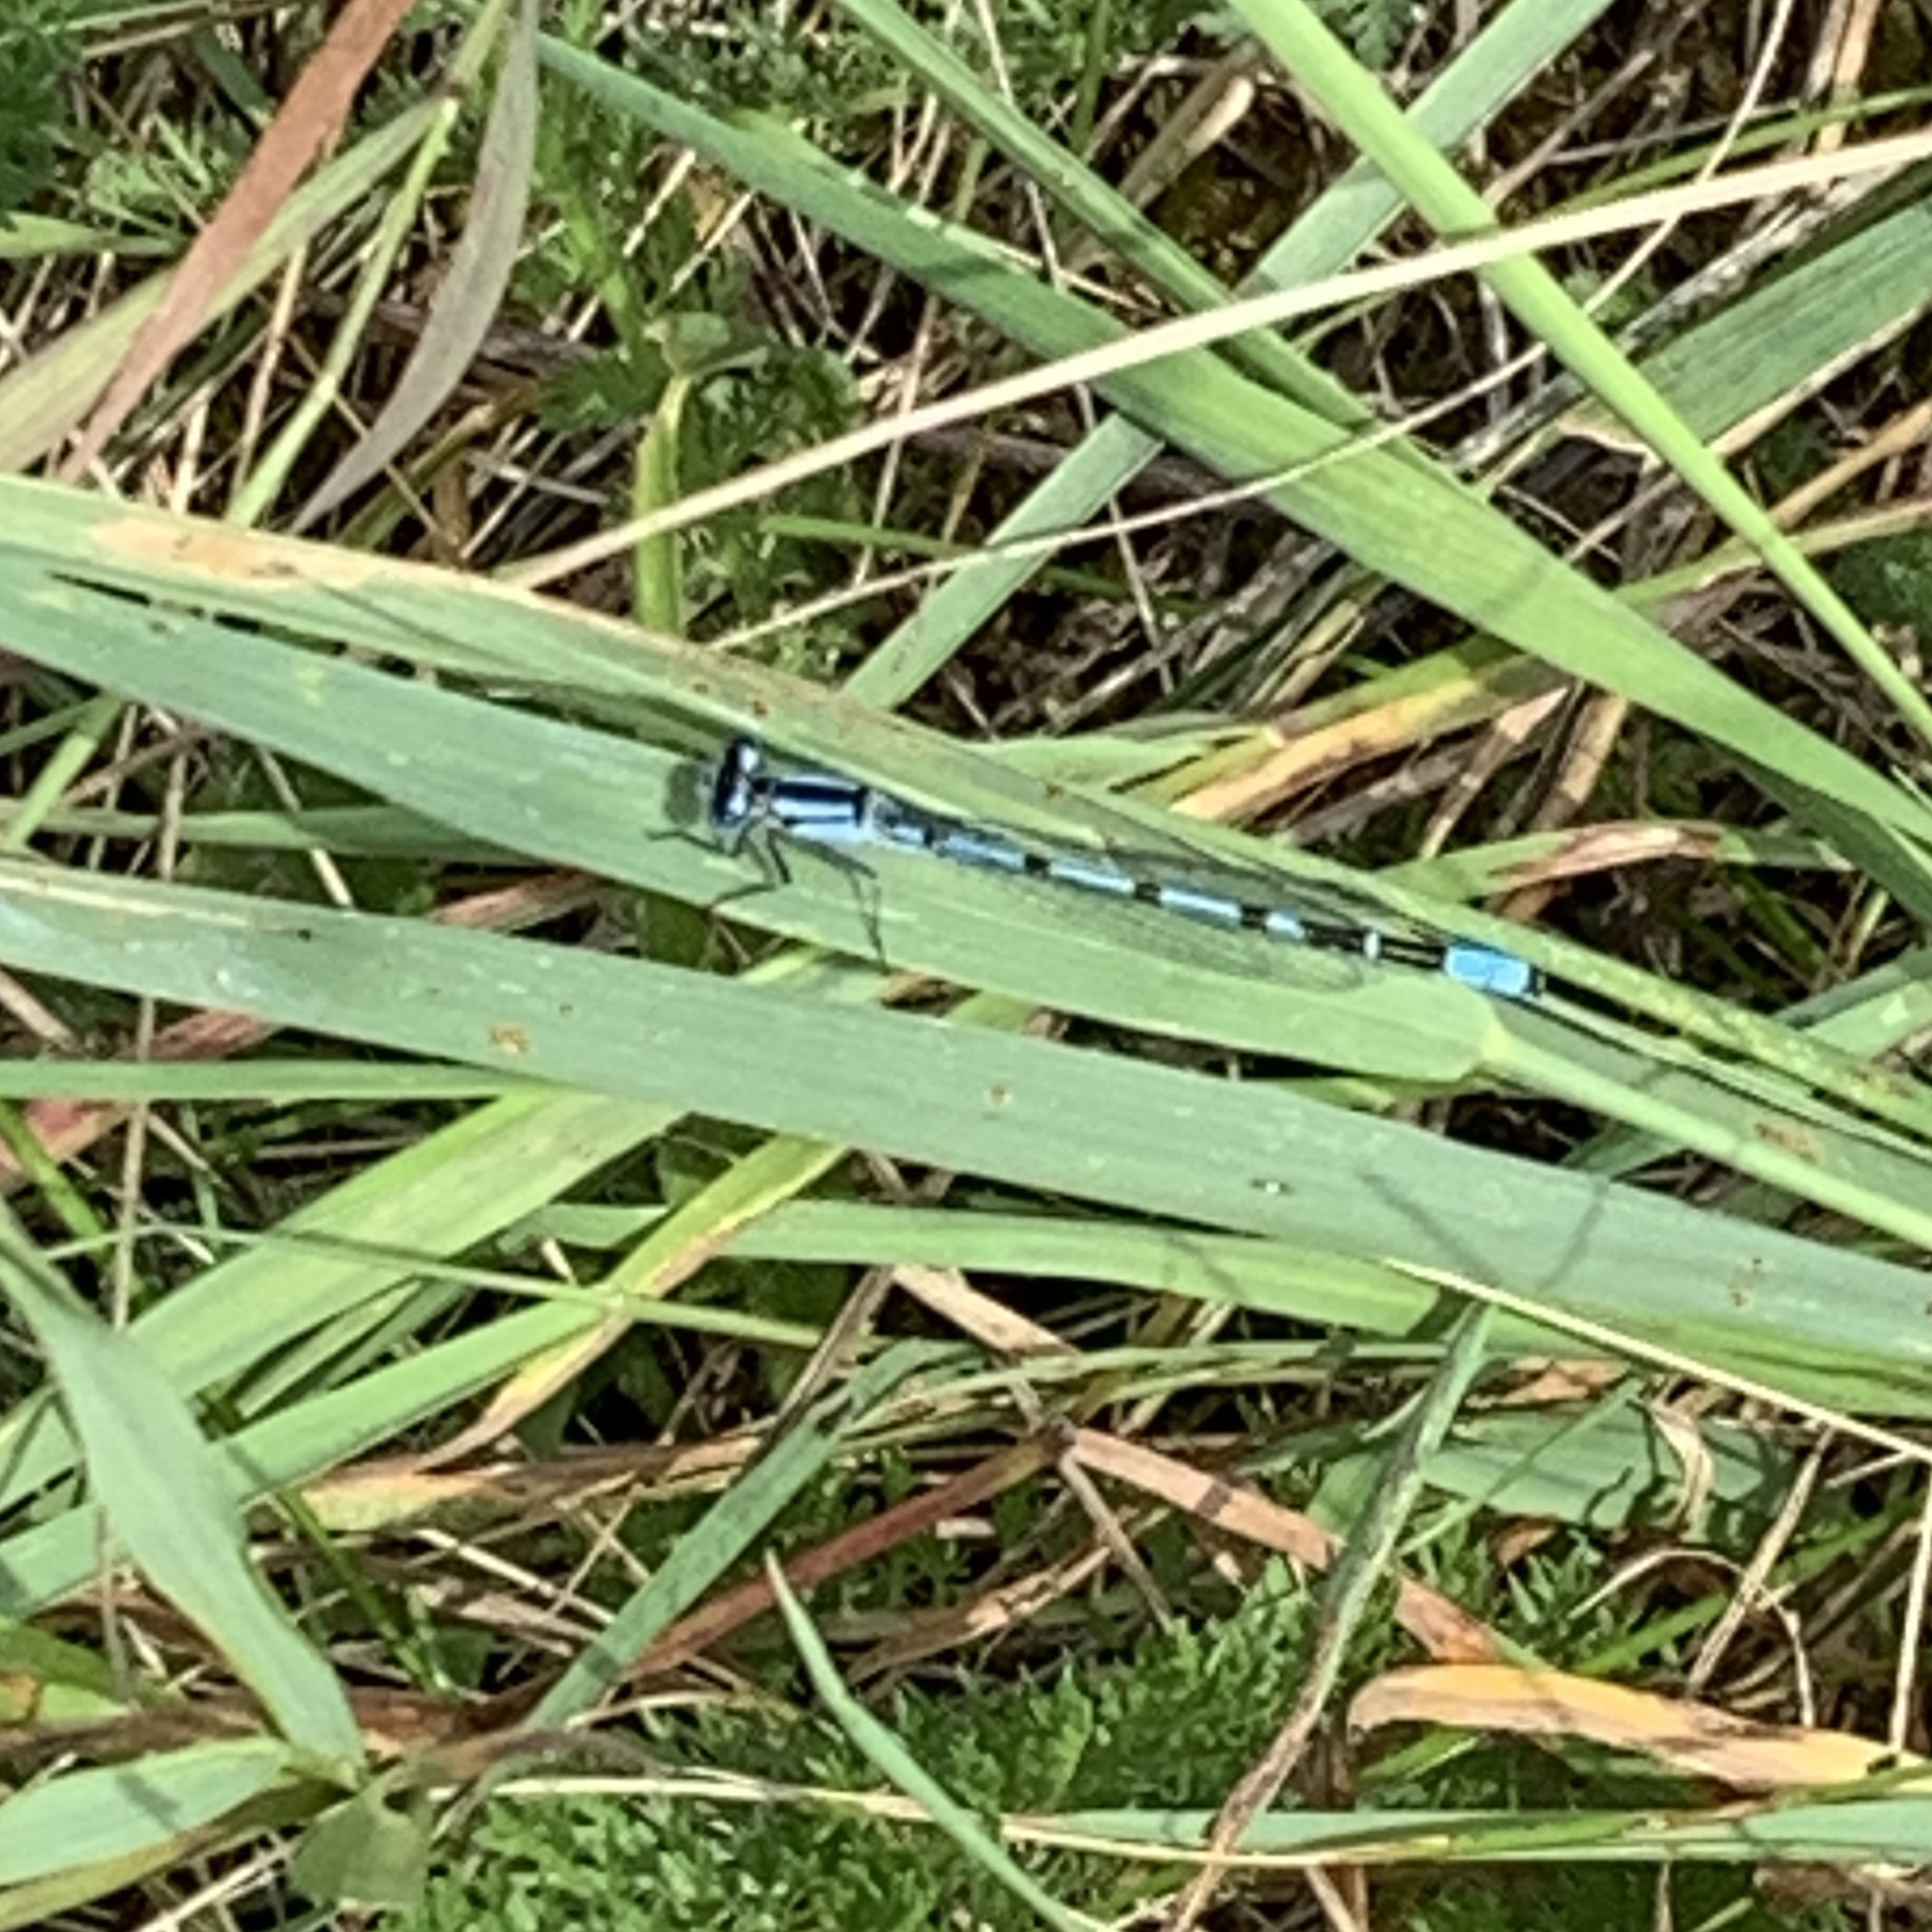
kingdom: Animalia
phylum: Arthropoda
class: Insecta
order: Odonata
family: Coenagrionidae
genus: Enallagma
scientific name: Enallagma cyathigerum
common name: Common blue damselfly
